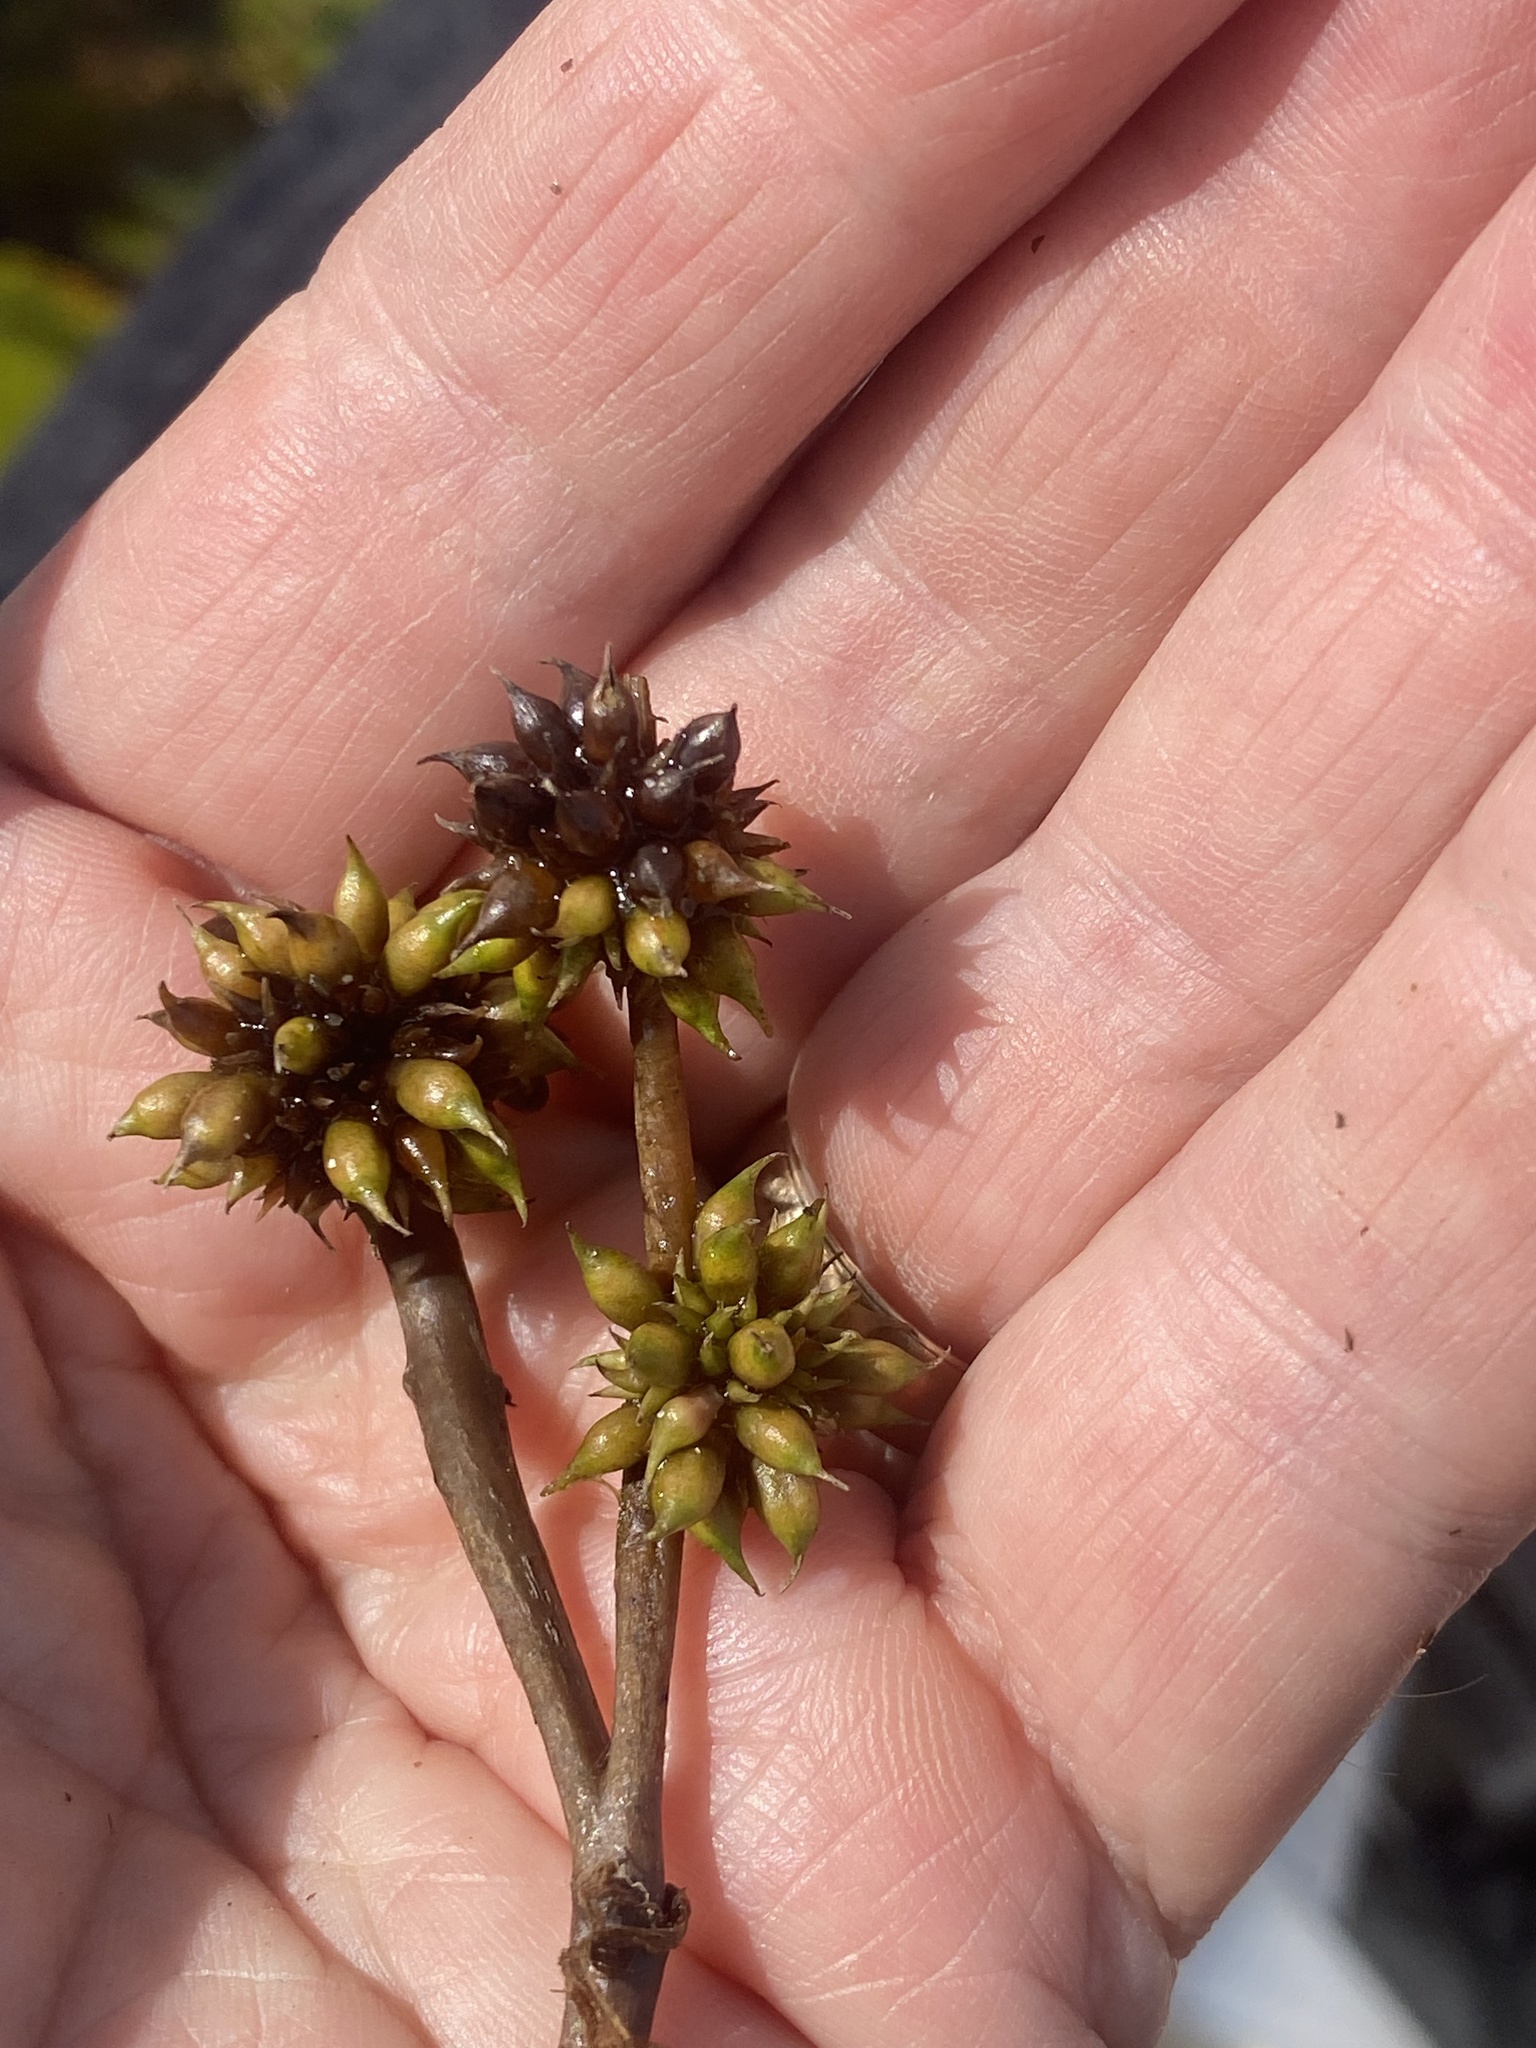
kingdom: Plantae
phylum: Tracheophyta
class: Liliopsida
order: Poales
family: Typhaceae
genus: Sparganium
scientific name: Sparganium fluctuans
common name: Floating burreed
